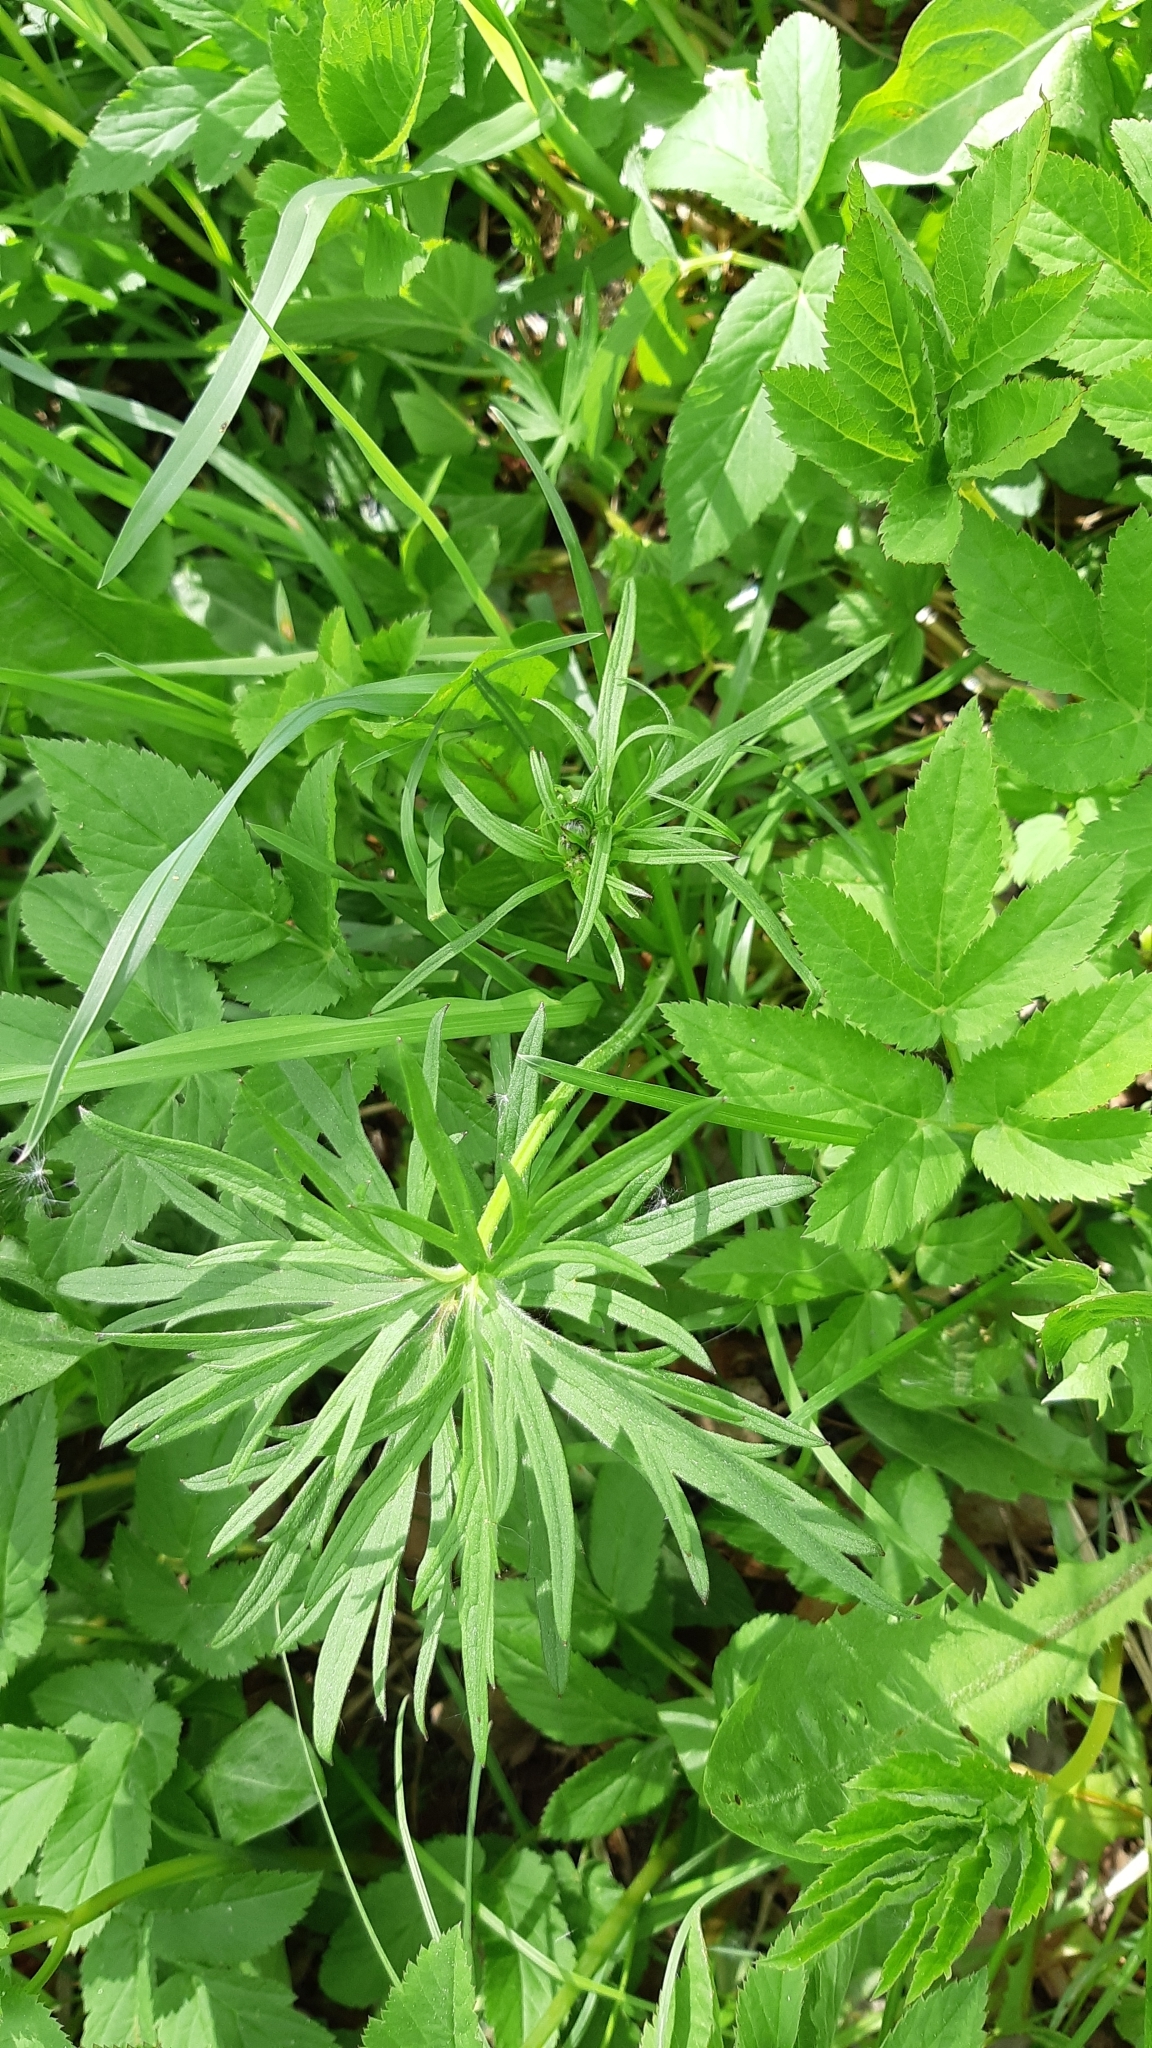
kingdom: Plantae
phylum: Tracheophyta
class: Magnoliopsida
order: Ranunculales
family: Ranunculaceae
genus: Ranunculus
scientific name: Ranunculus acris
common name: Meadow buttercup
